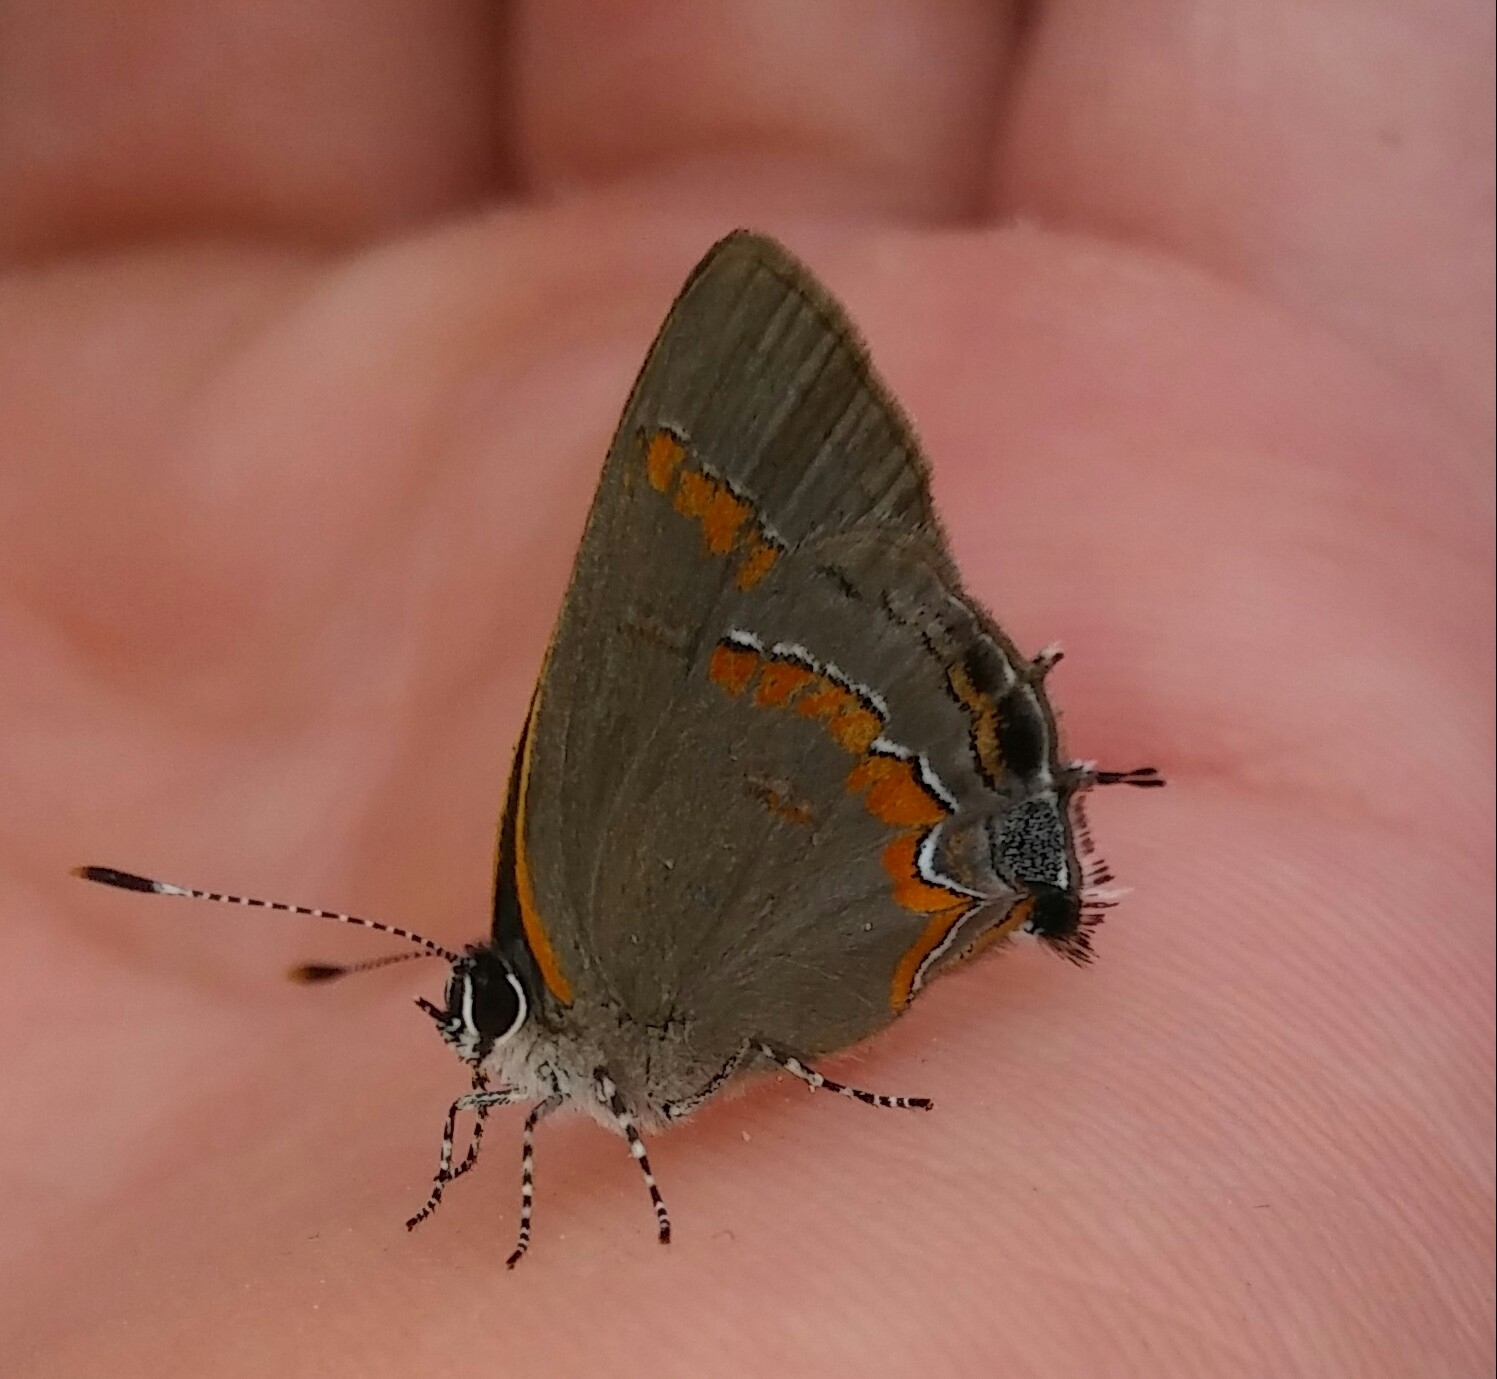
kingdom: Animalia
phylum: Arthropoda
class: Insecta
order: Lepidoptera
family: Lycaenidae
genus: Calycopis
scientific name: Calycopis cecrops
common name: Red-banded hairstreak
